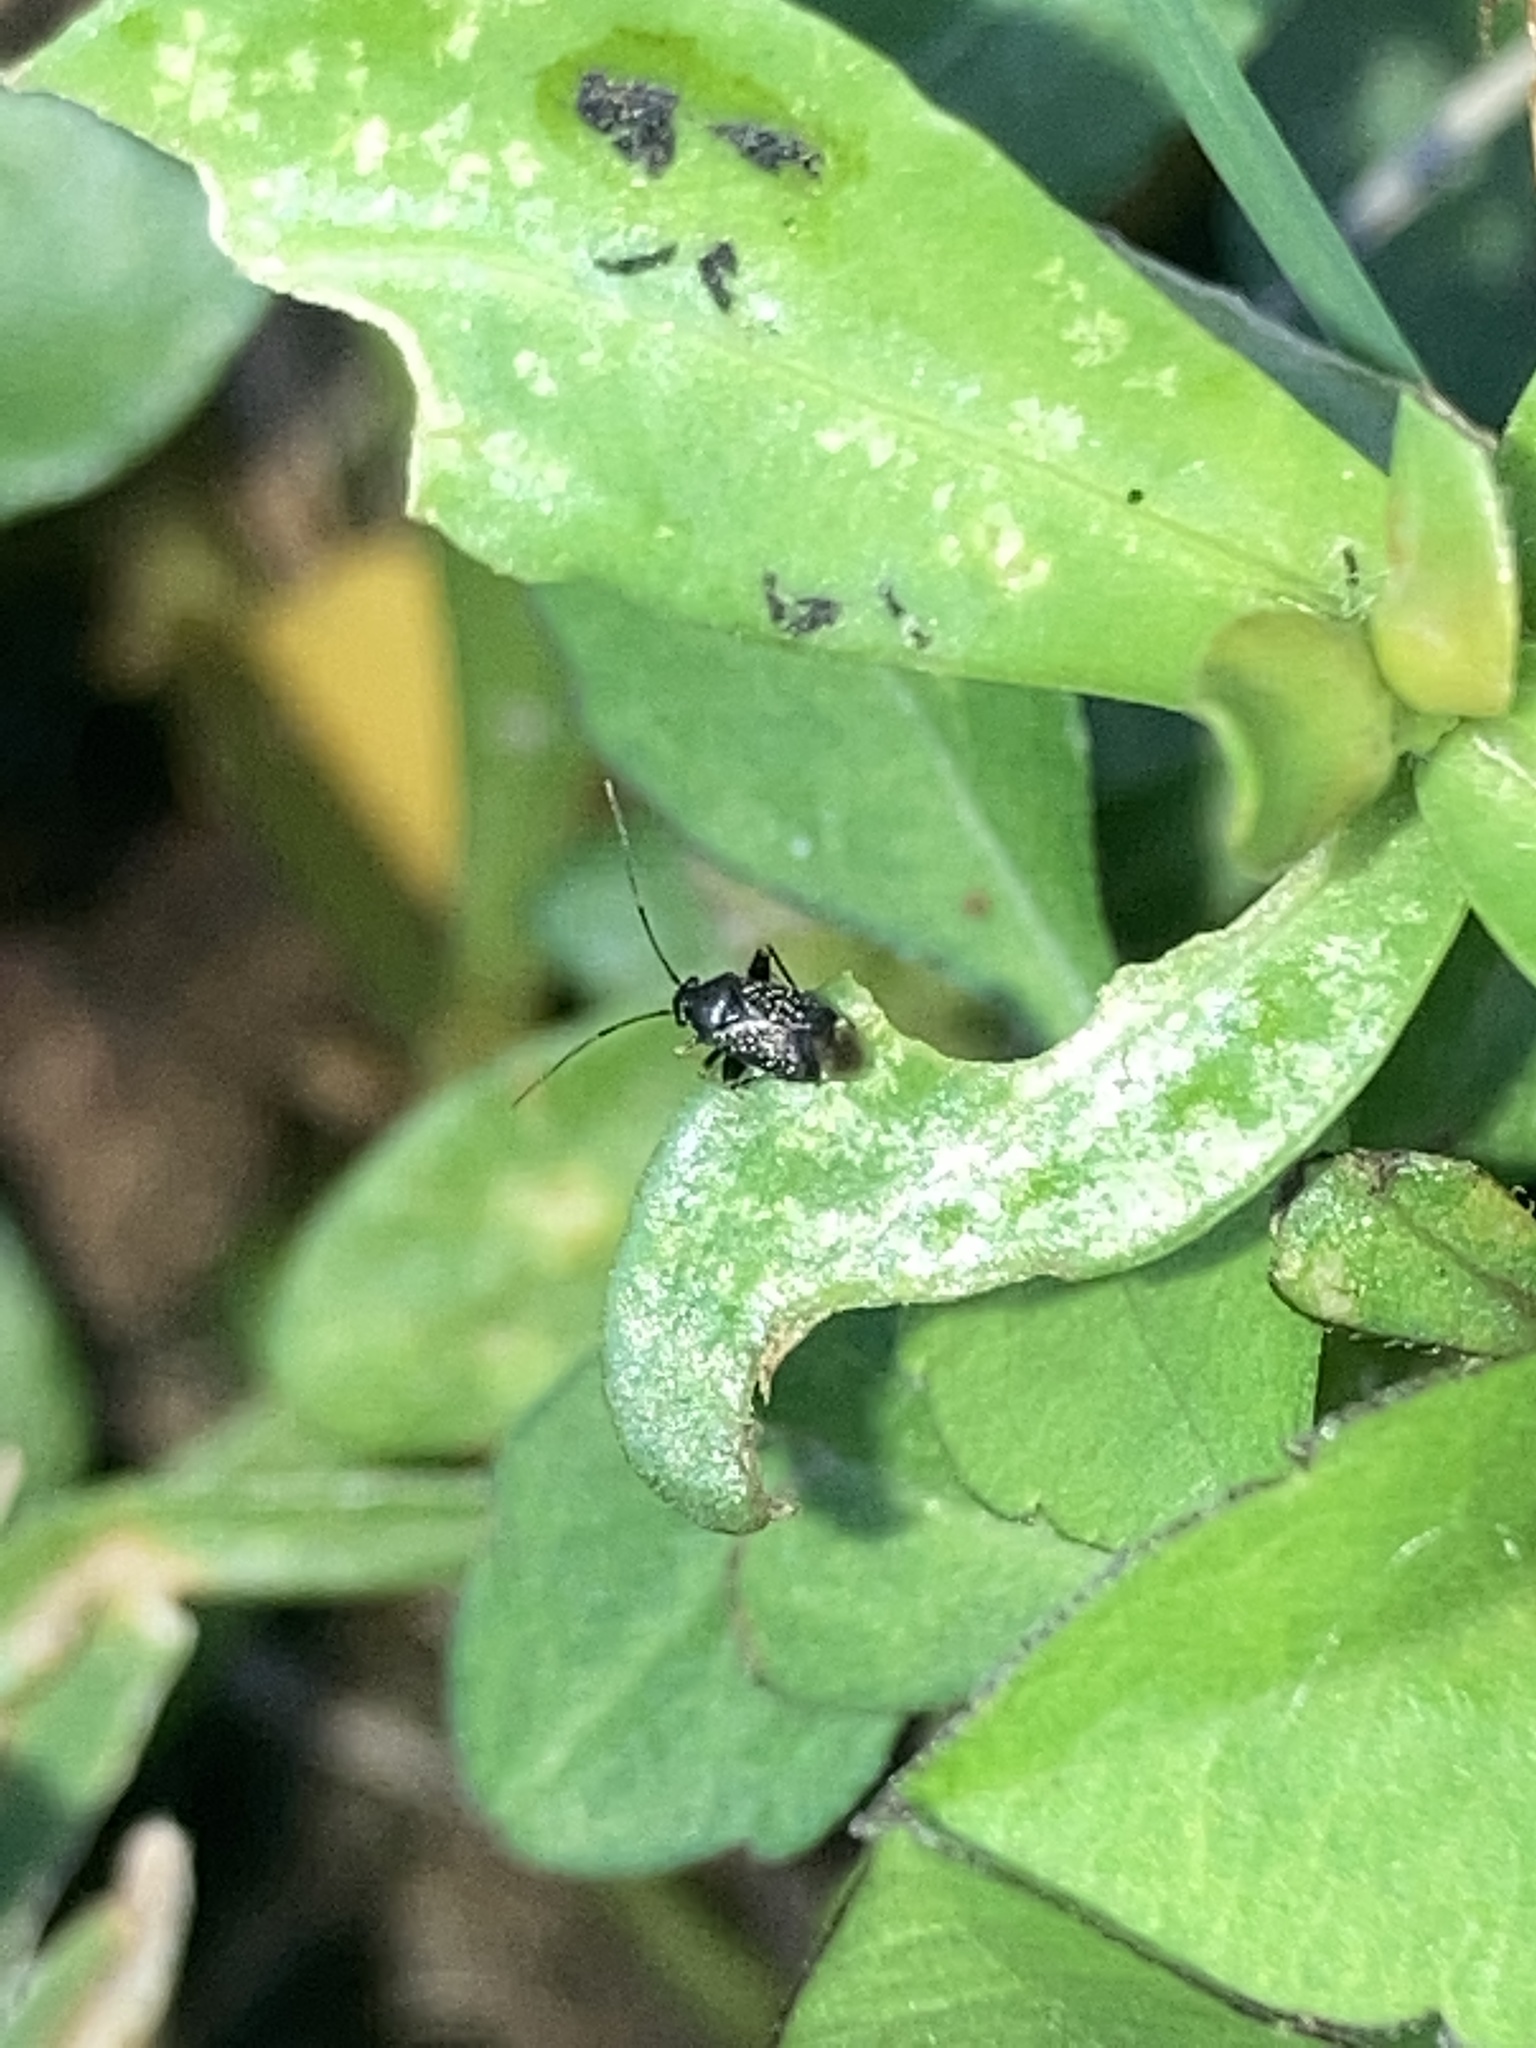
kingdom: Animalia
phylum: Arthropoda
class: Insecta
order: Hemiptera
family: Miridae
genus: Microtechnites
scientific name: Microtechnites bractatus
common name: Garden fleahopper
